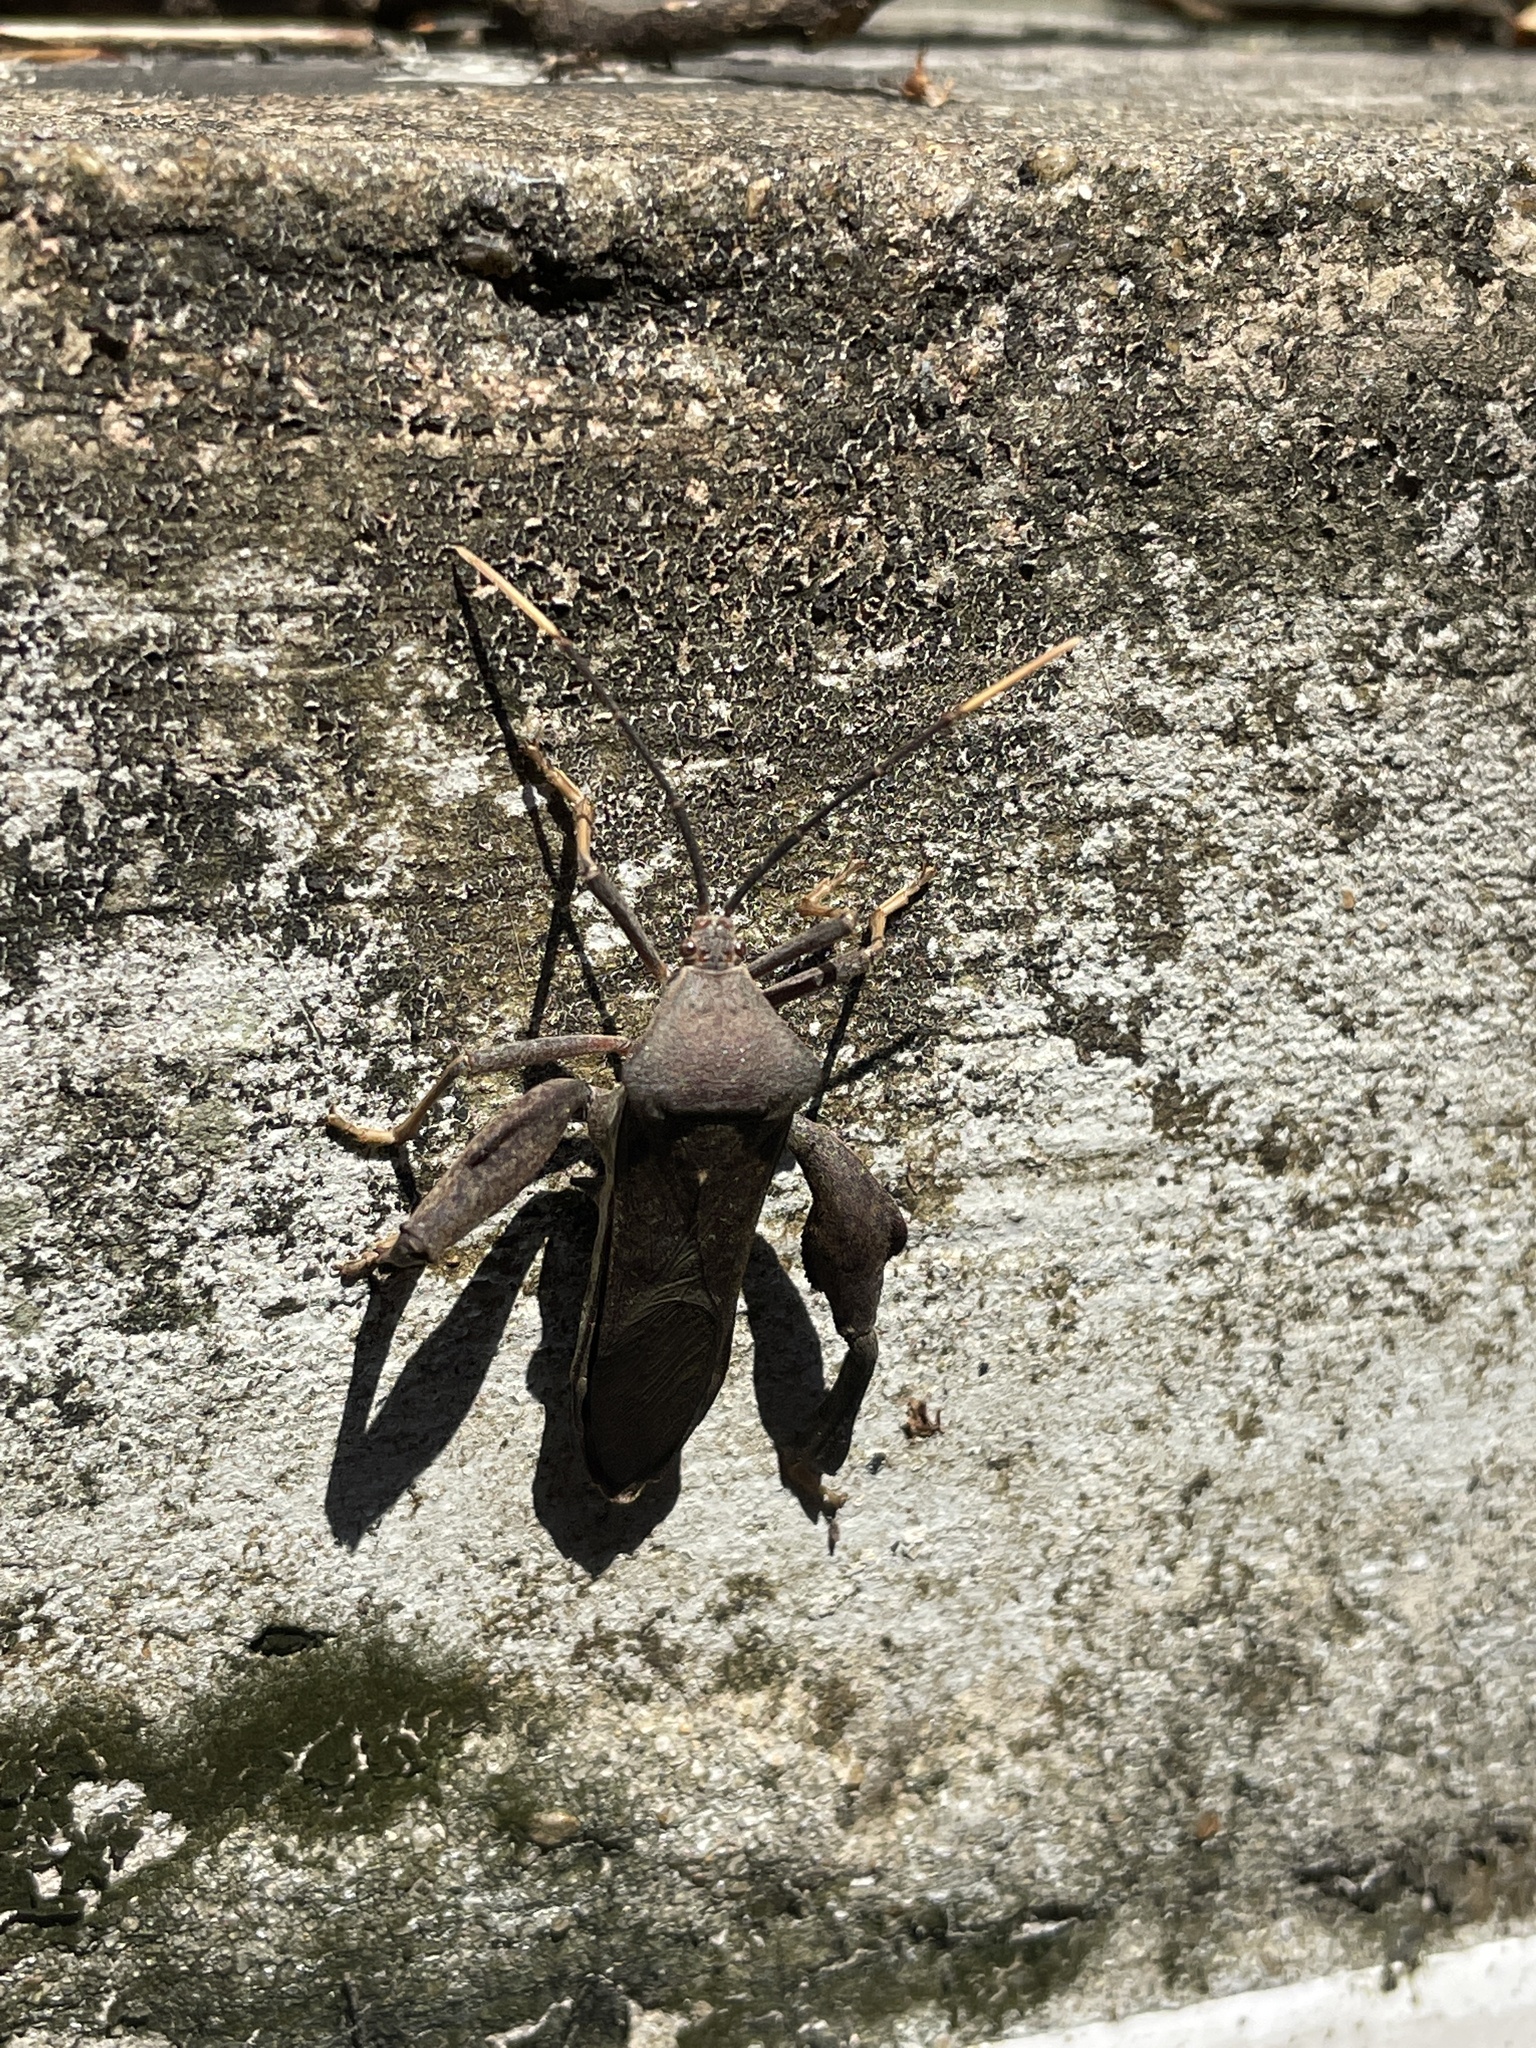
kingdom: Animalia
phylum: Arthropoda
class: Insecta
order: Hemiptera
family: Coreidae
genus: Pseudomictis
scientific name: Pseudomictis distinctus
